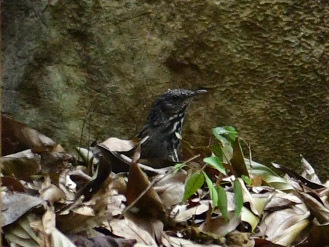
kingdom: Animalia
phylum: Chordata
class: Aves
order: Passeriformes
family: Pellorneidae
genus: Napothera
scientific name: Napothera brevicaudata
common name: Streaked wren-babbler
